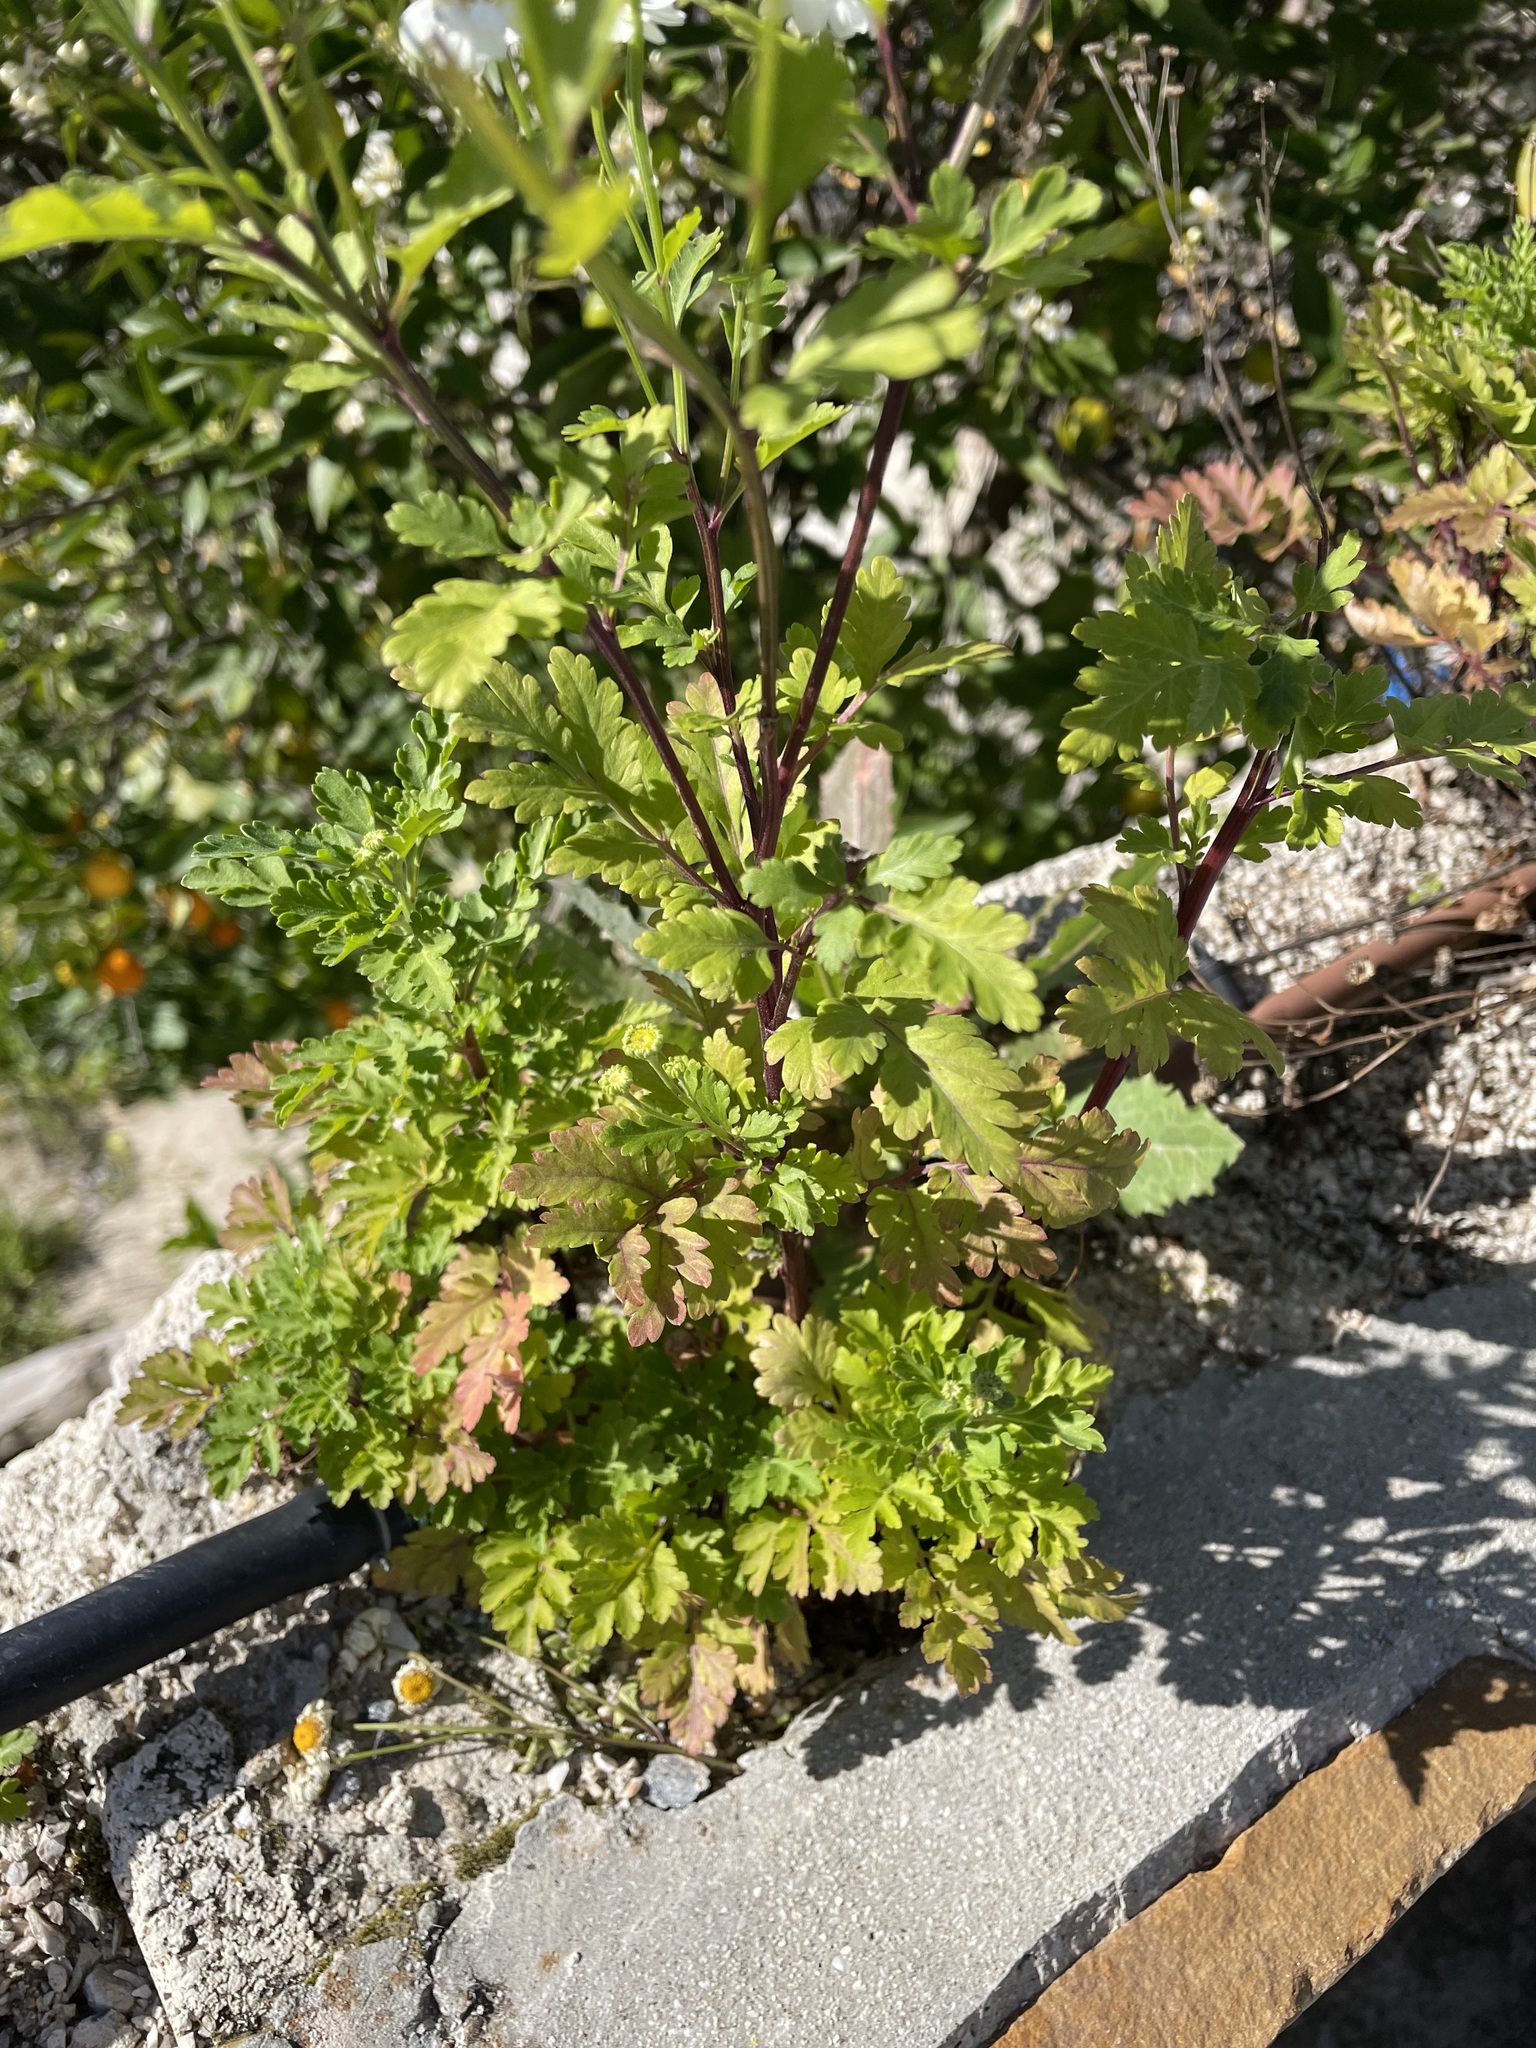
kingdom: Plantae
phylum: Tracheophyta
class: Magnoliopsida
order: Asterales
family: Asteraceae
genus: Tanacetum
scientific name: Tanacetum parthenium
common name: Feverfew
